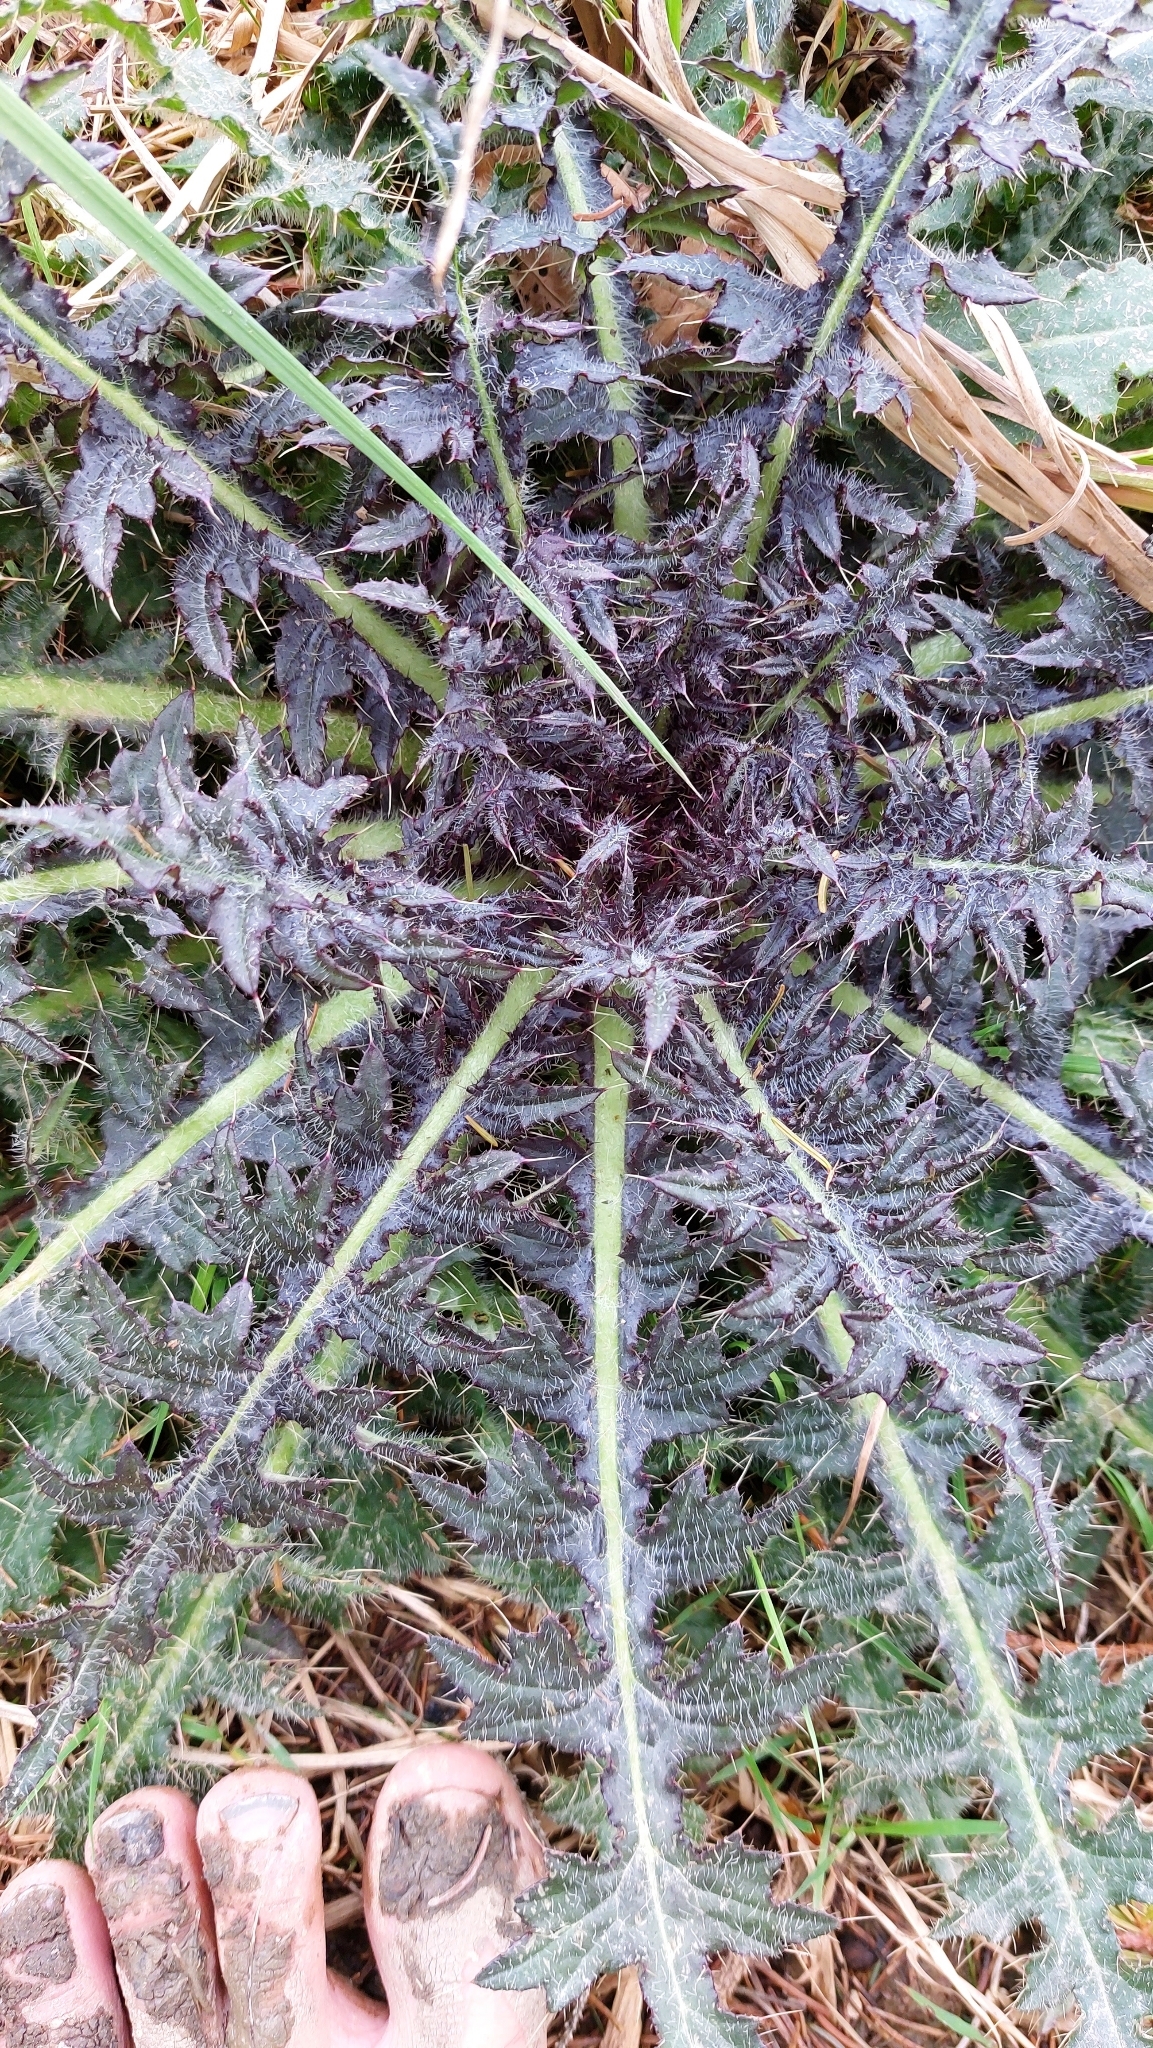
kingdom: Plantae
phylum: Tracheophyta
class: Magnoliopsida
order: Asterales
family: Asteraceae
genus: Cirsium
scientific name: Cirsium palustre
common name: Marsh thistle
